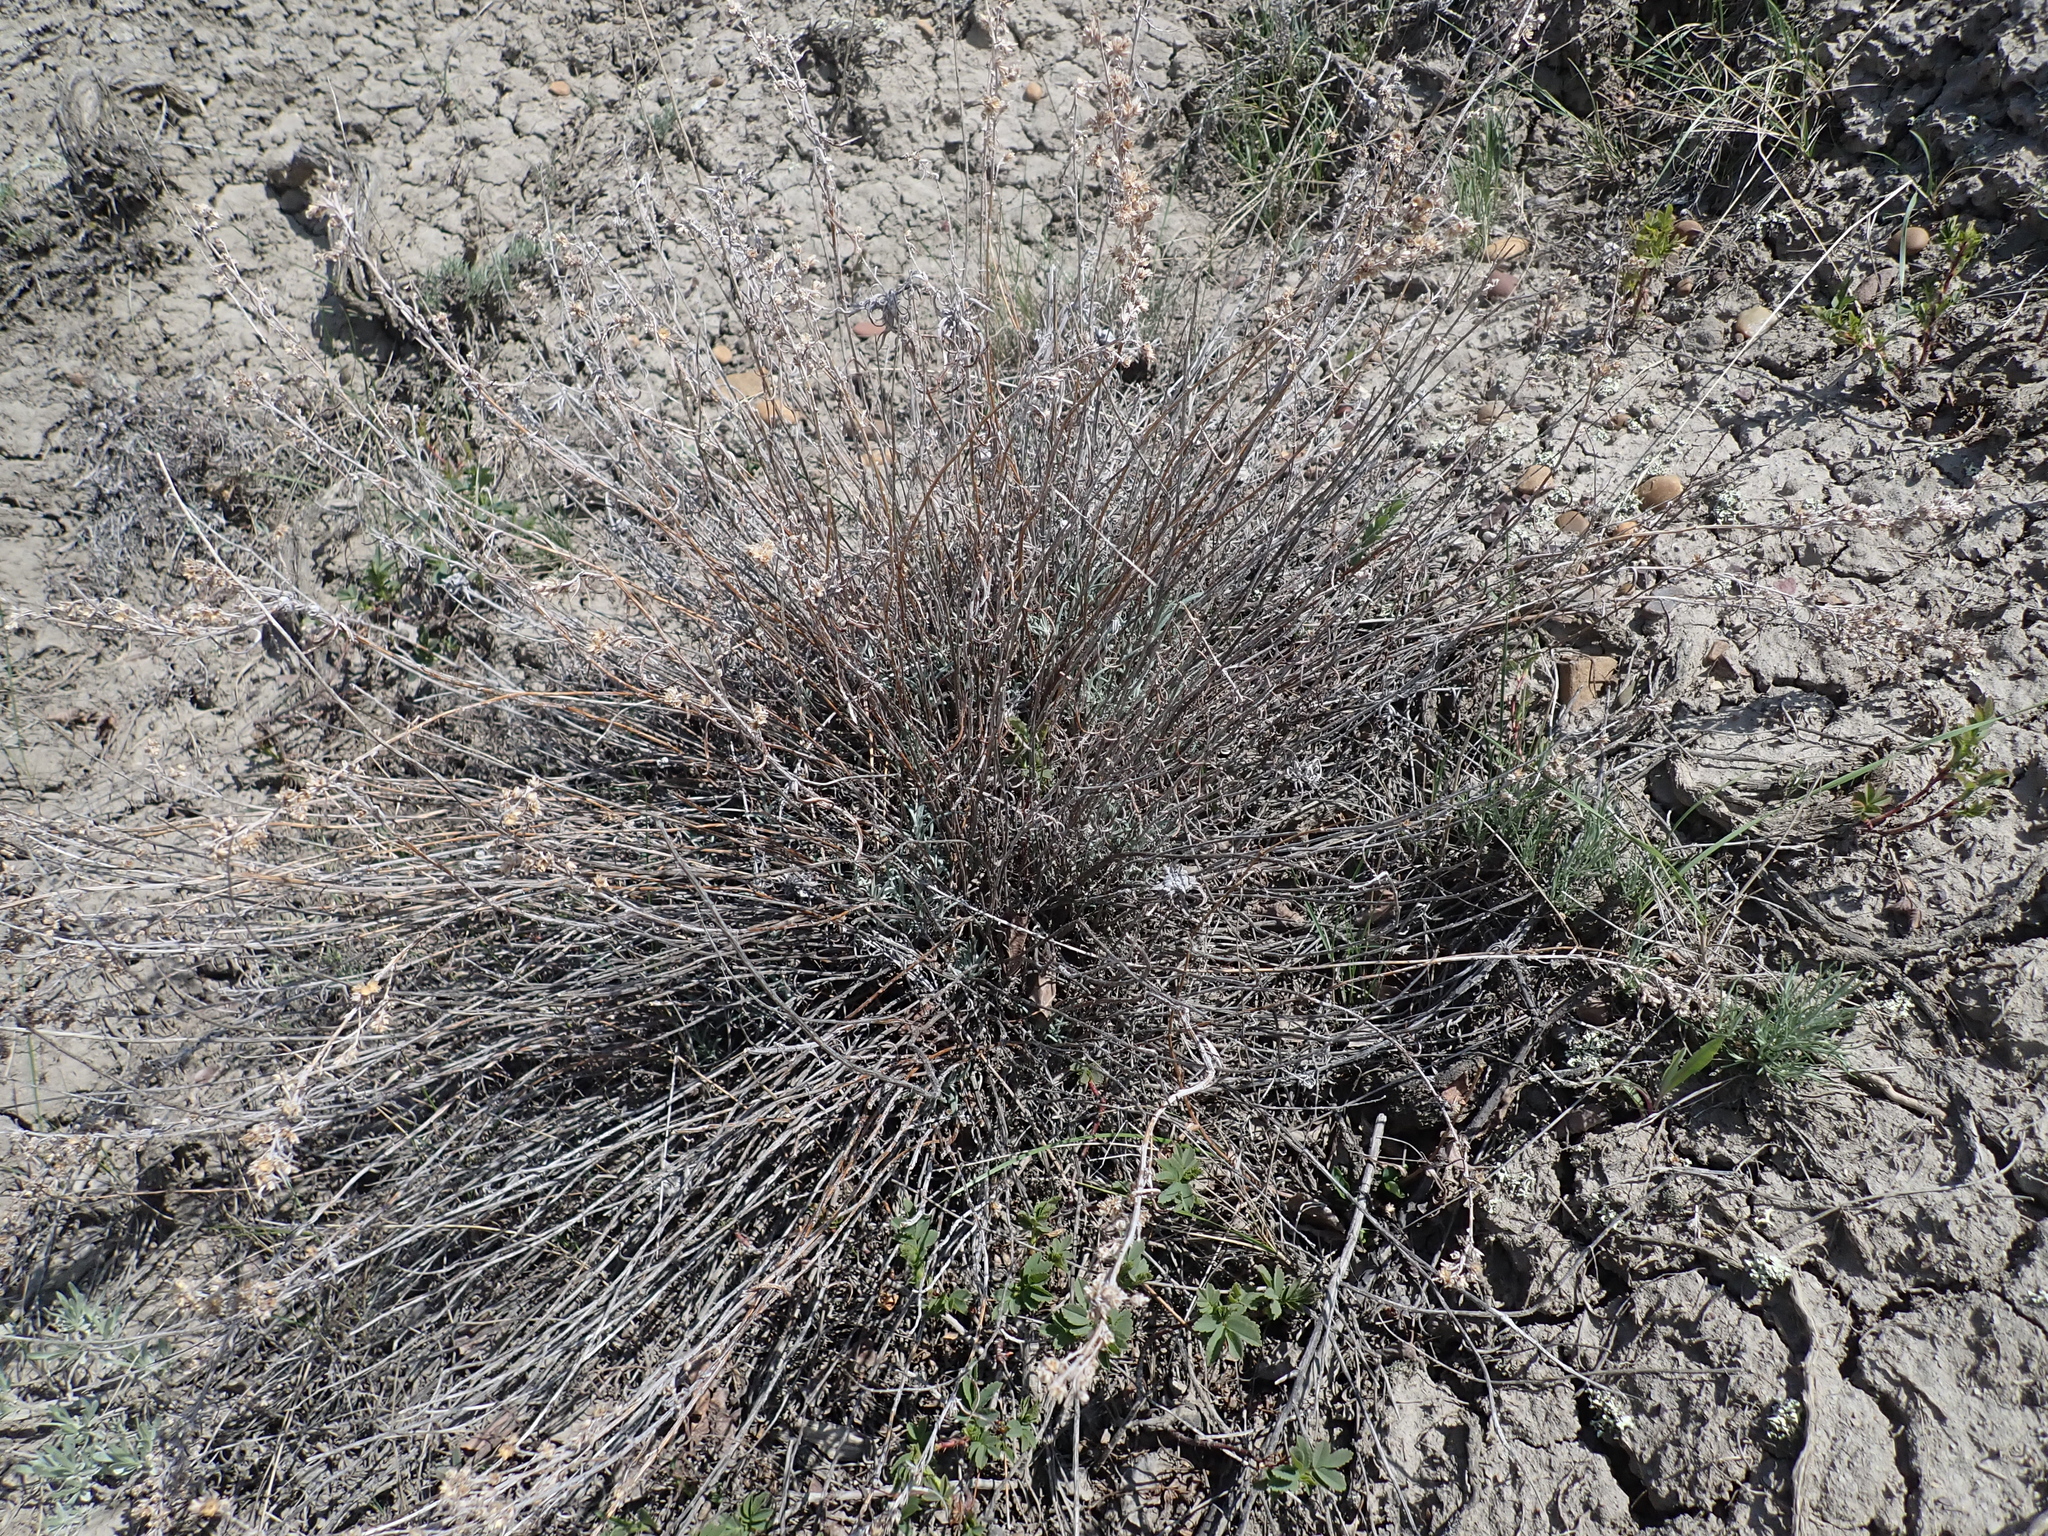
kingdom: Plantae
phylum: Tracheophyta
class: Magnoliopsida
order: Asterales
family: Asteraceae
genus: Artemisia
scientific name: Artemisia longifolia
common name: Long-leaved mugwort
